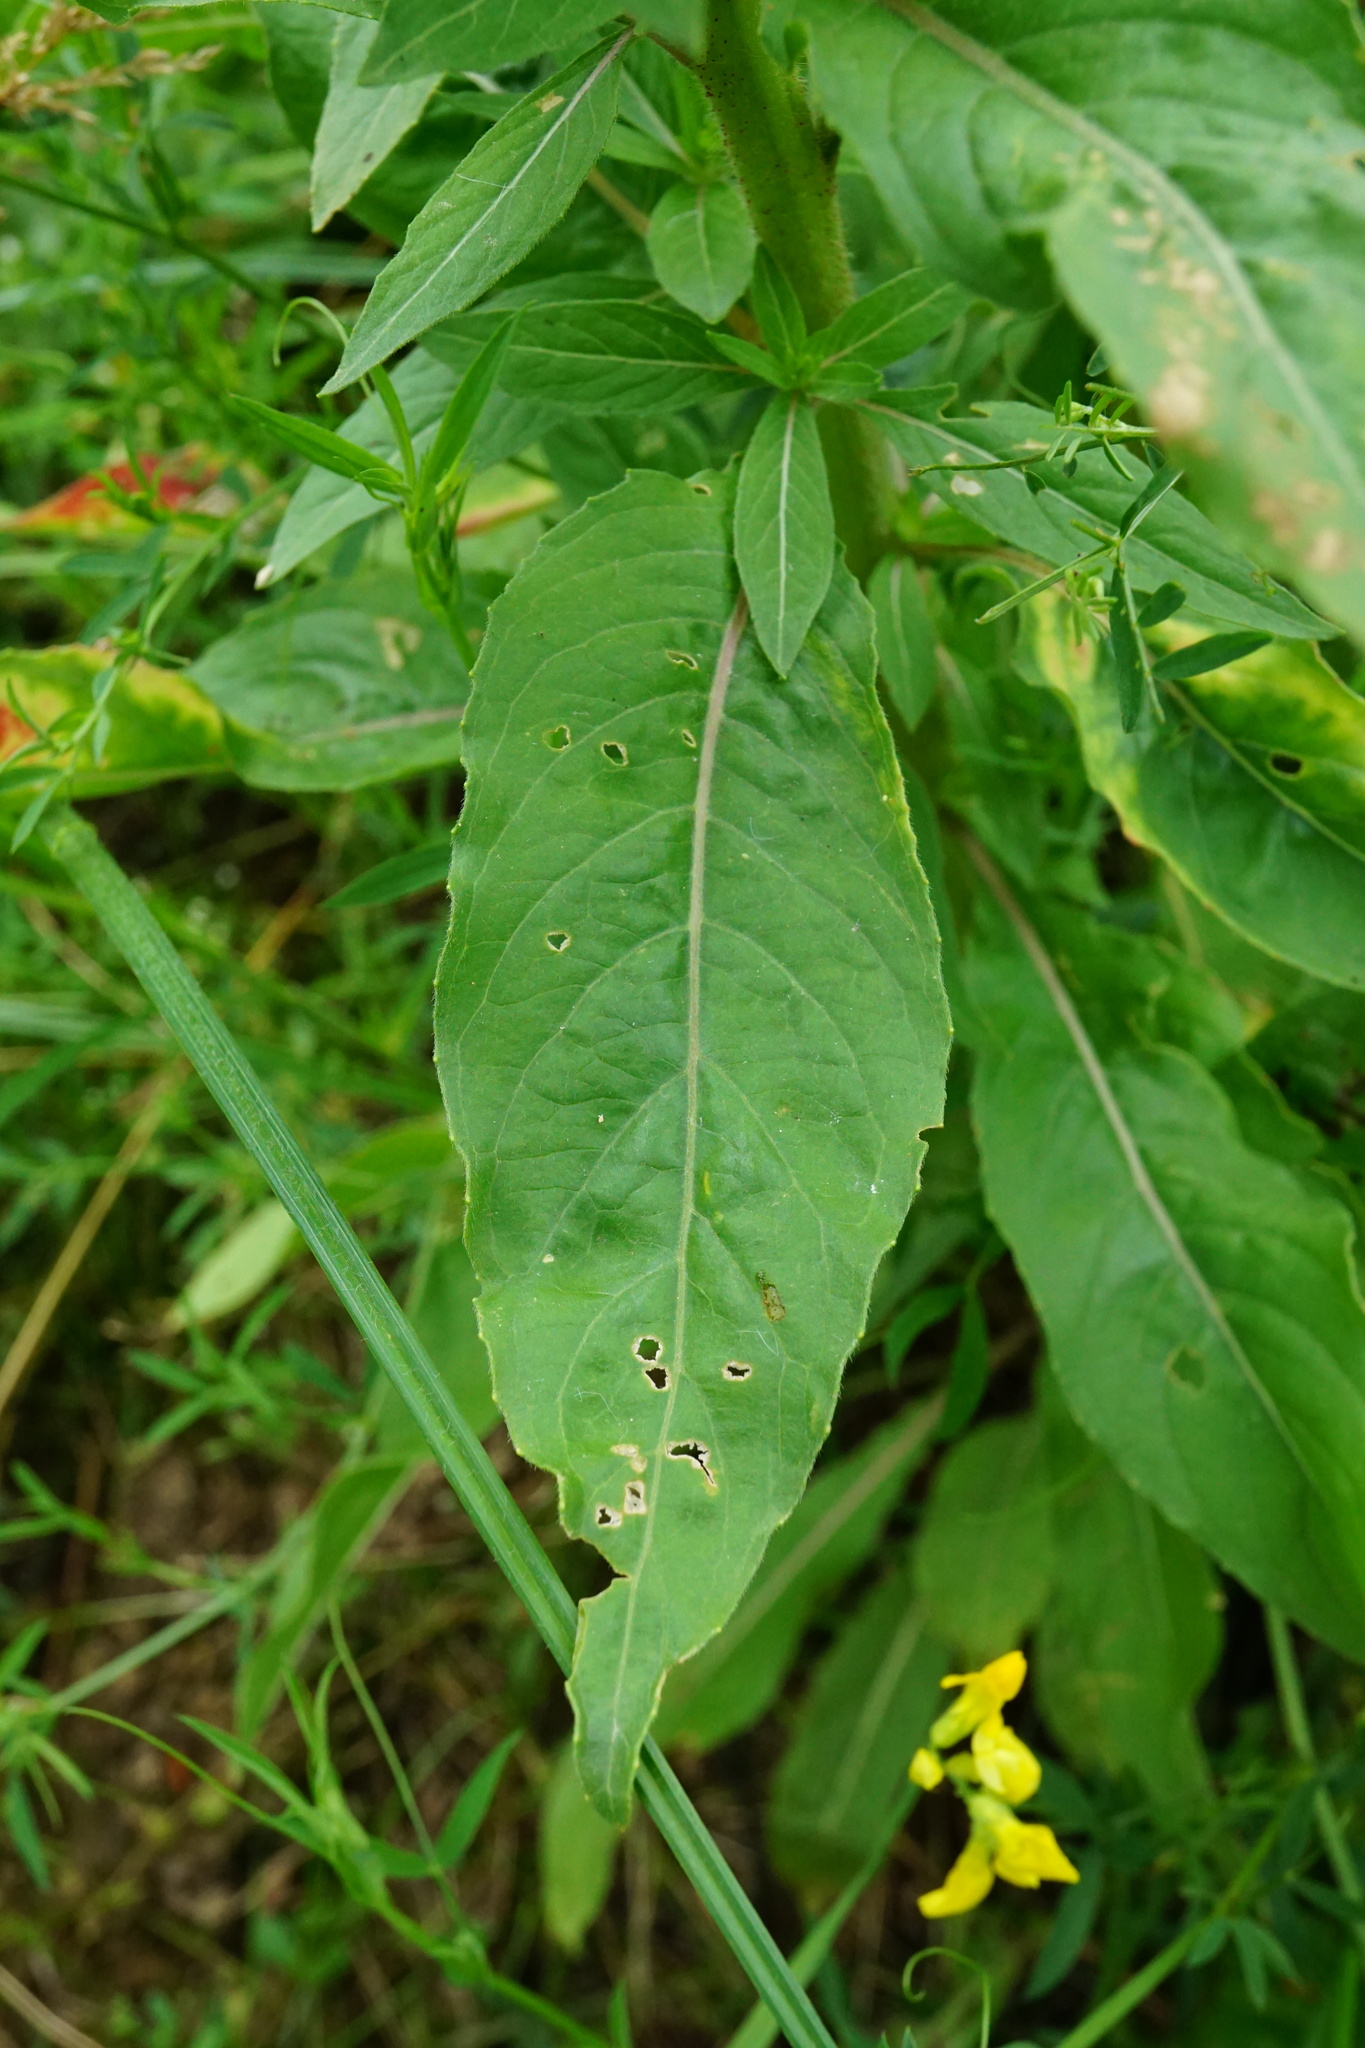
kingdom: Plantae
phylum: Tracheophyta
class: Magnoliopsida
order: Myrtales
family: Onagraceae
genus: Oenothera
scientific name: Oenothera glazioviana
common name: Large-flowered evening-primrose
